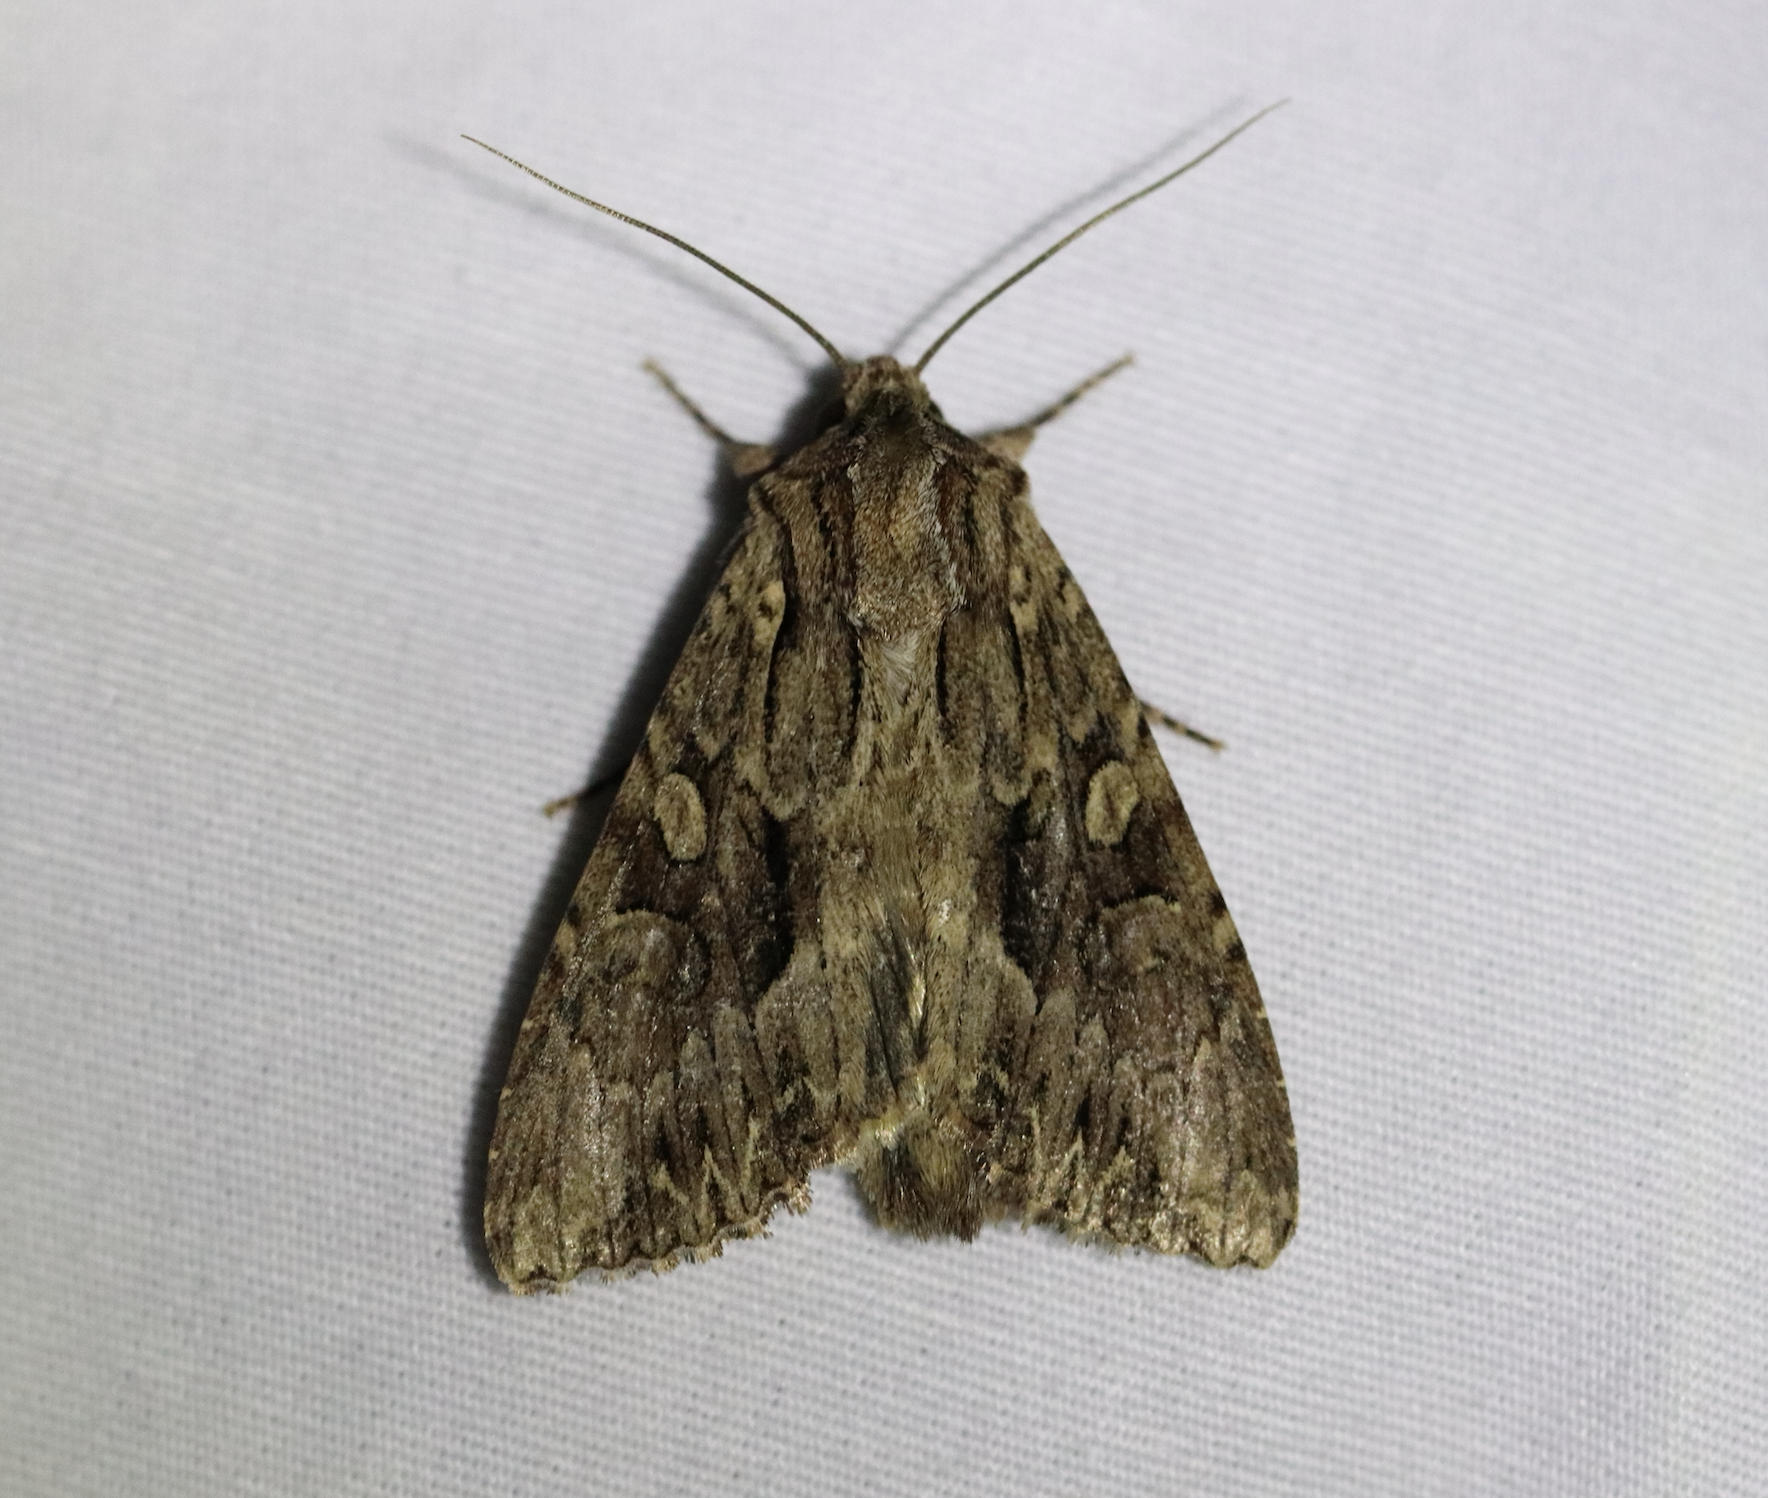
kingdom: Animalia
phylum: Arthropoda
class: Insecta
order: Lepidoptera
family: Noctuidae
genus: Apamea
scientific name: Apamea monoglypha
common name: Dark arches
